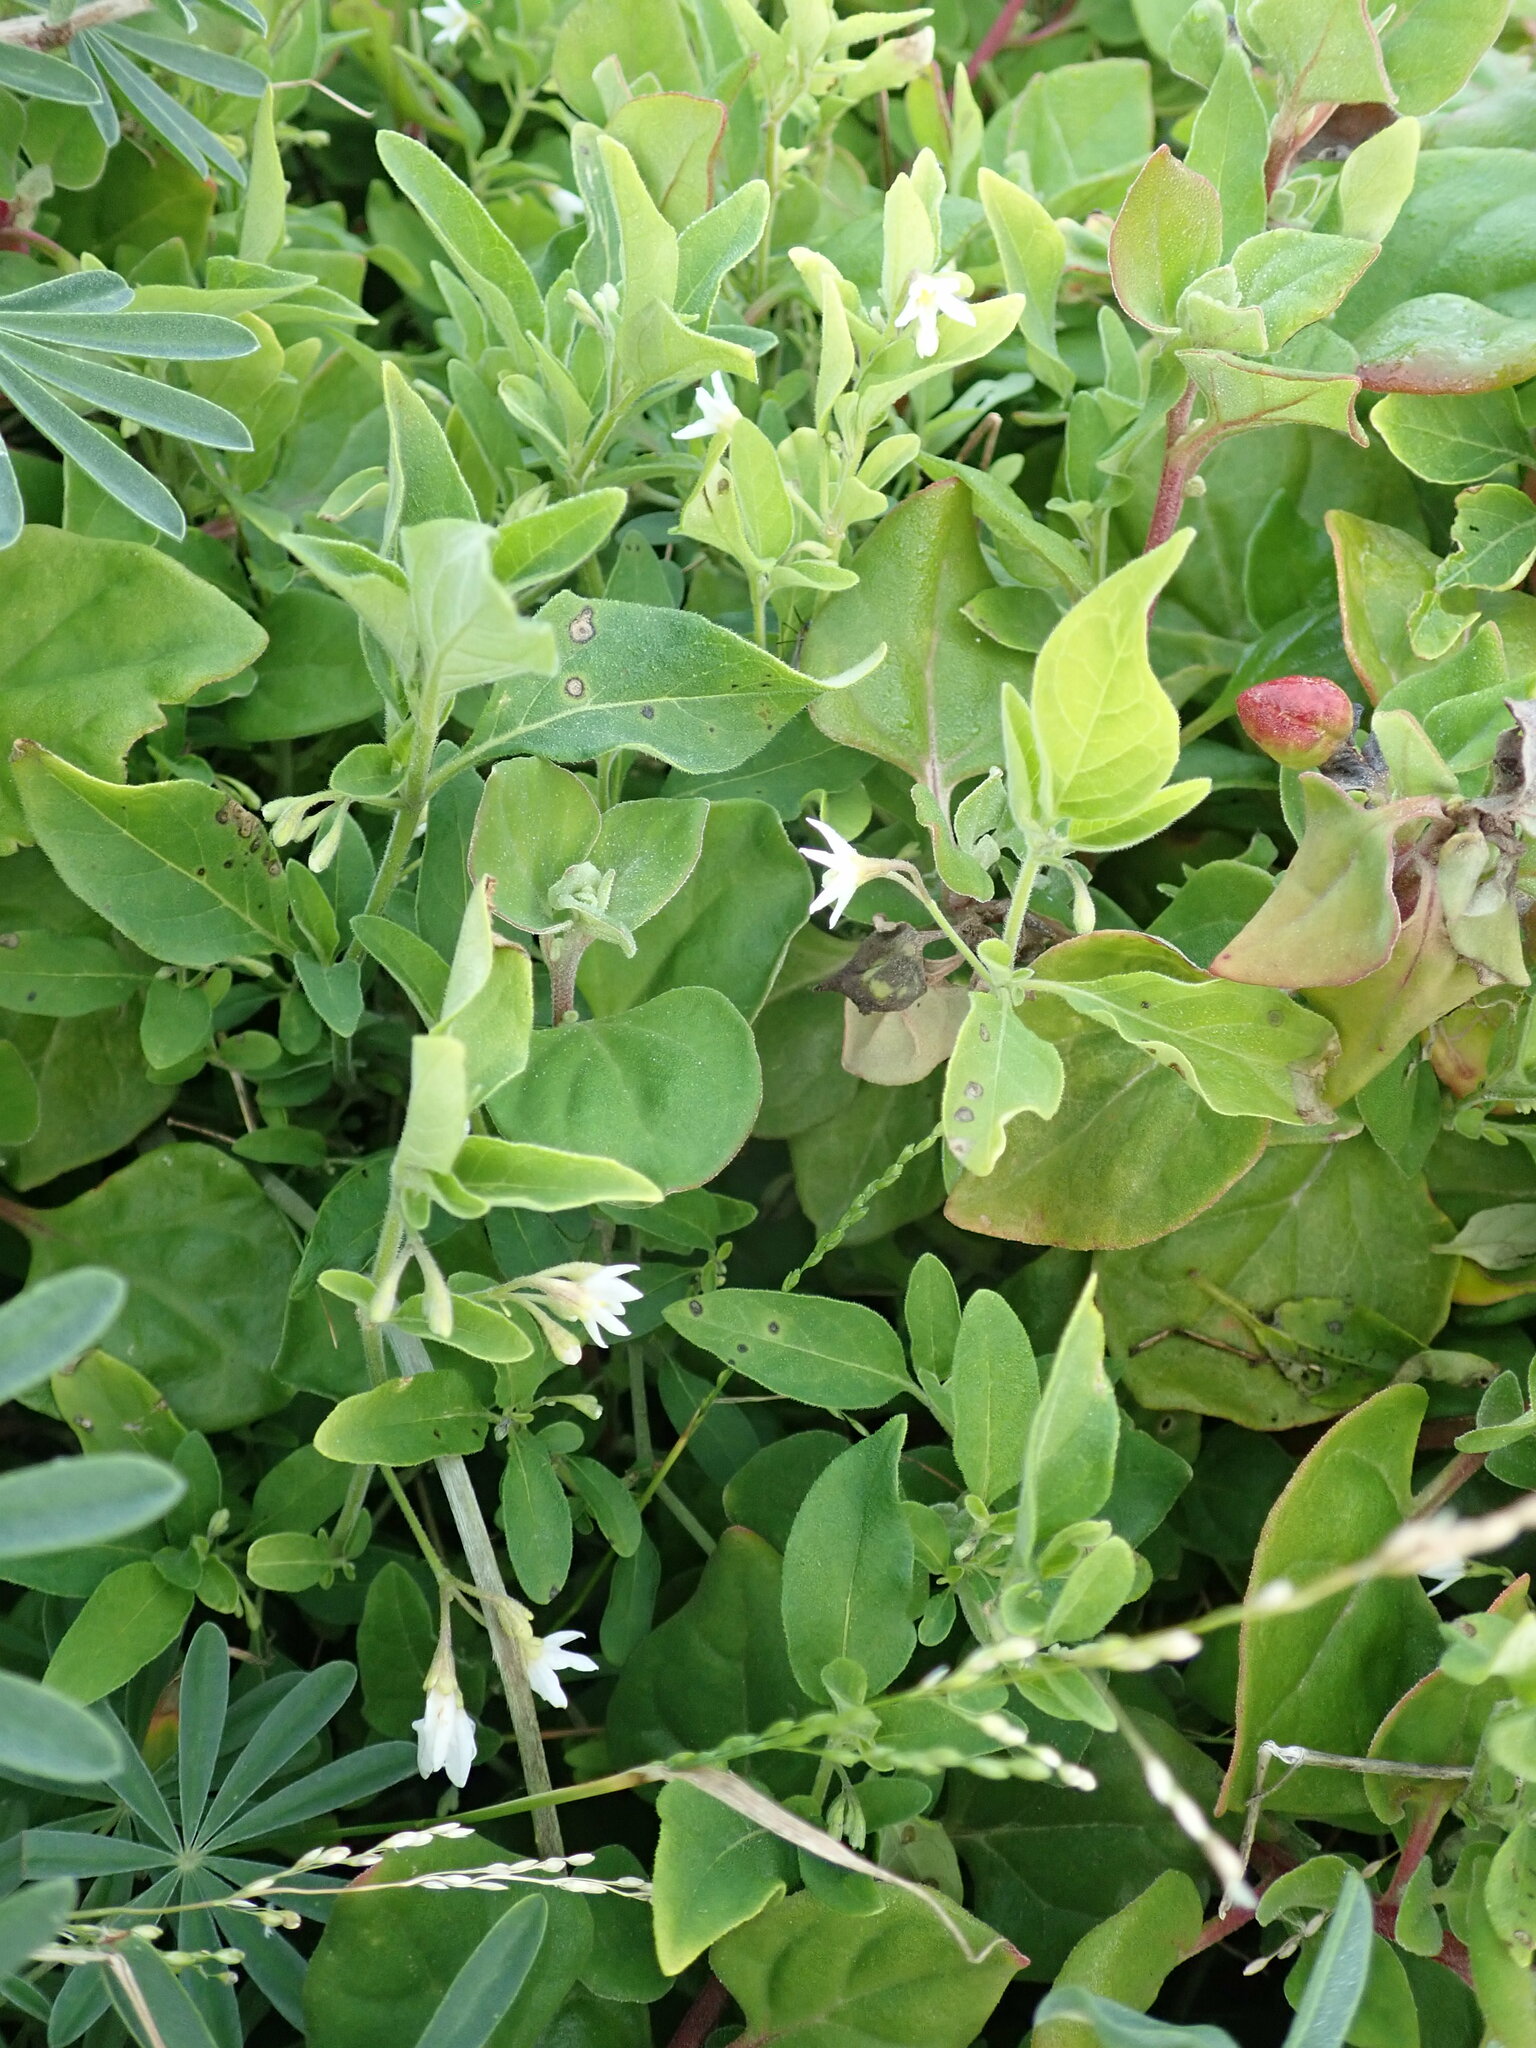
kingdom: Plantae
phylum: Tracheophyta
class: Magnoliopsida
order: Solanales
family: Solanaceae
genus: Solanum
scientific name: Solanum chenopodioides
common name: Tall nightshade
